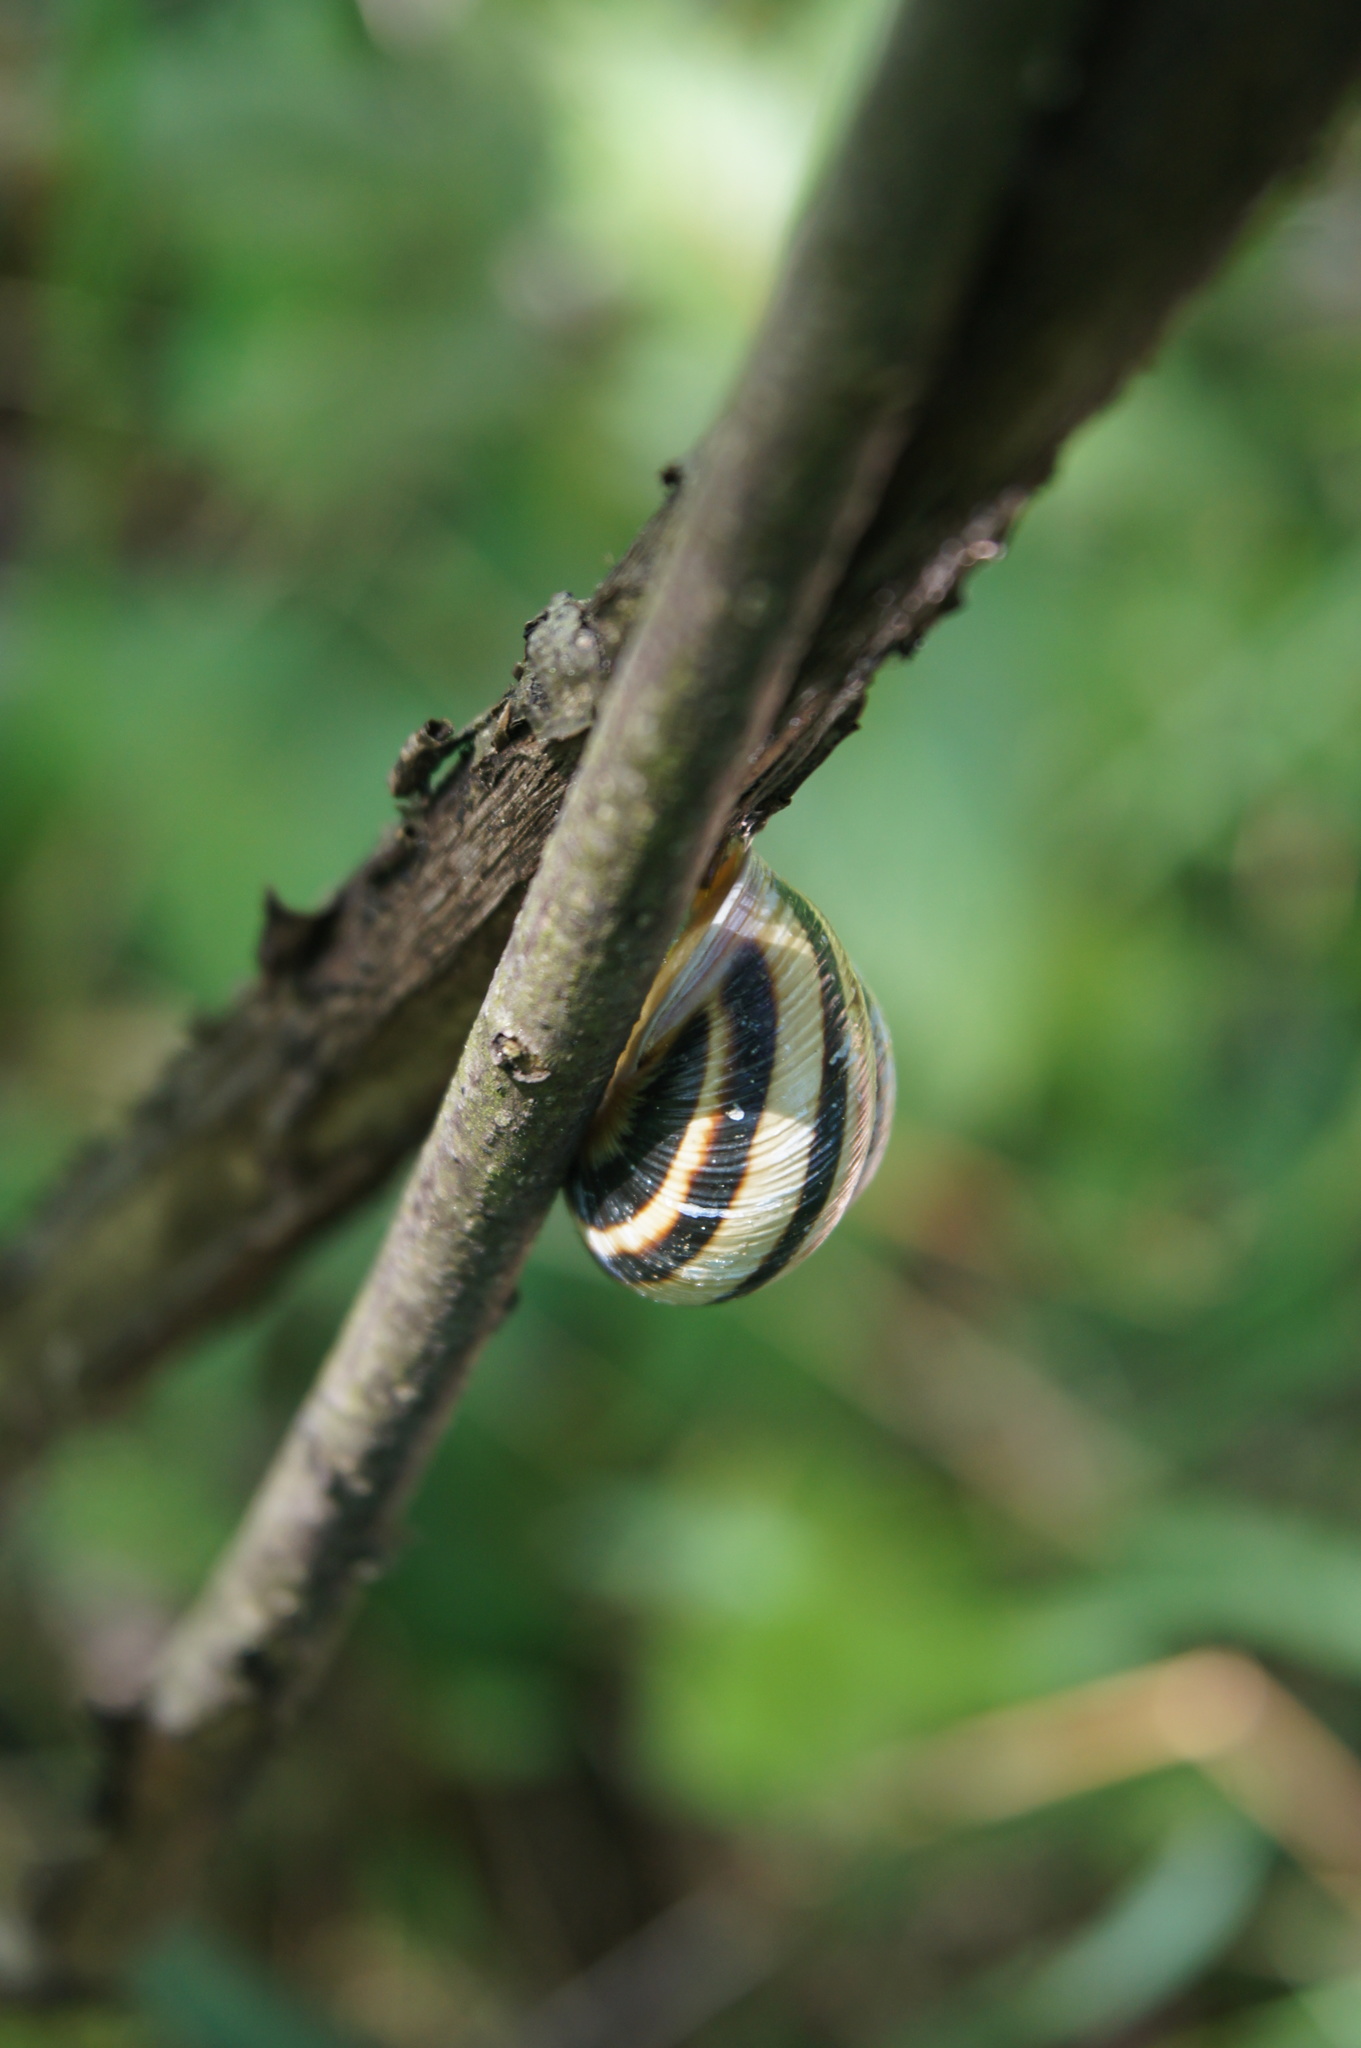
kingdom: Animalia
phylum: Mollusca
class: Gastropoda
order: Stylommatophora
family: Helicidae
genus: Caucasotachea
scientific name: Caucasotachea vindobonensis
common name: European helicid land snail
